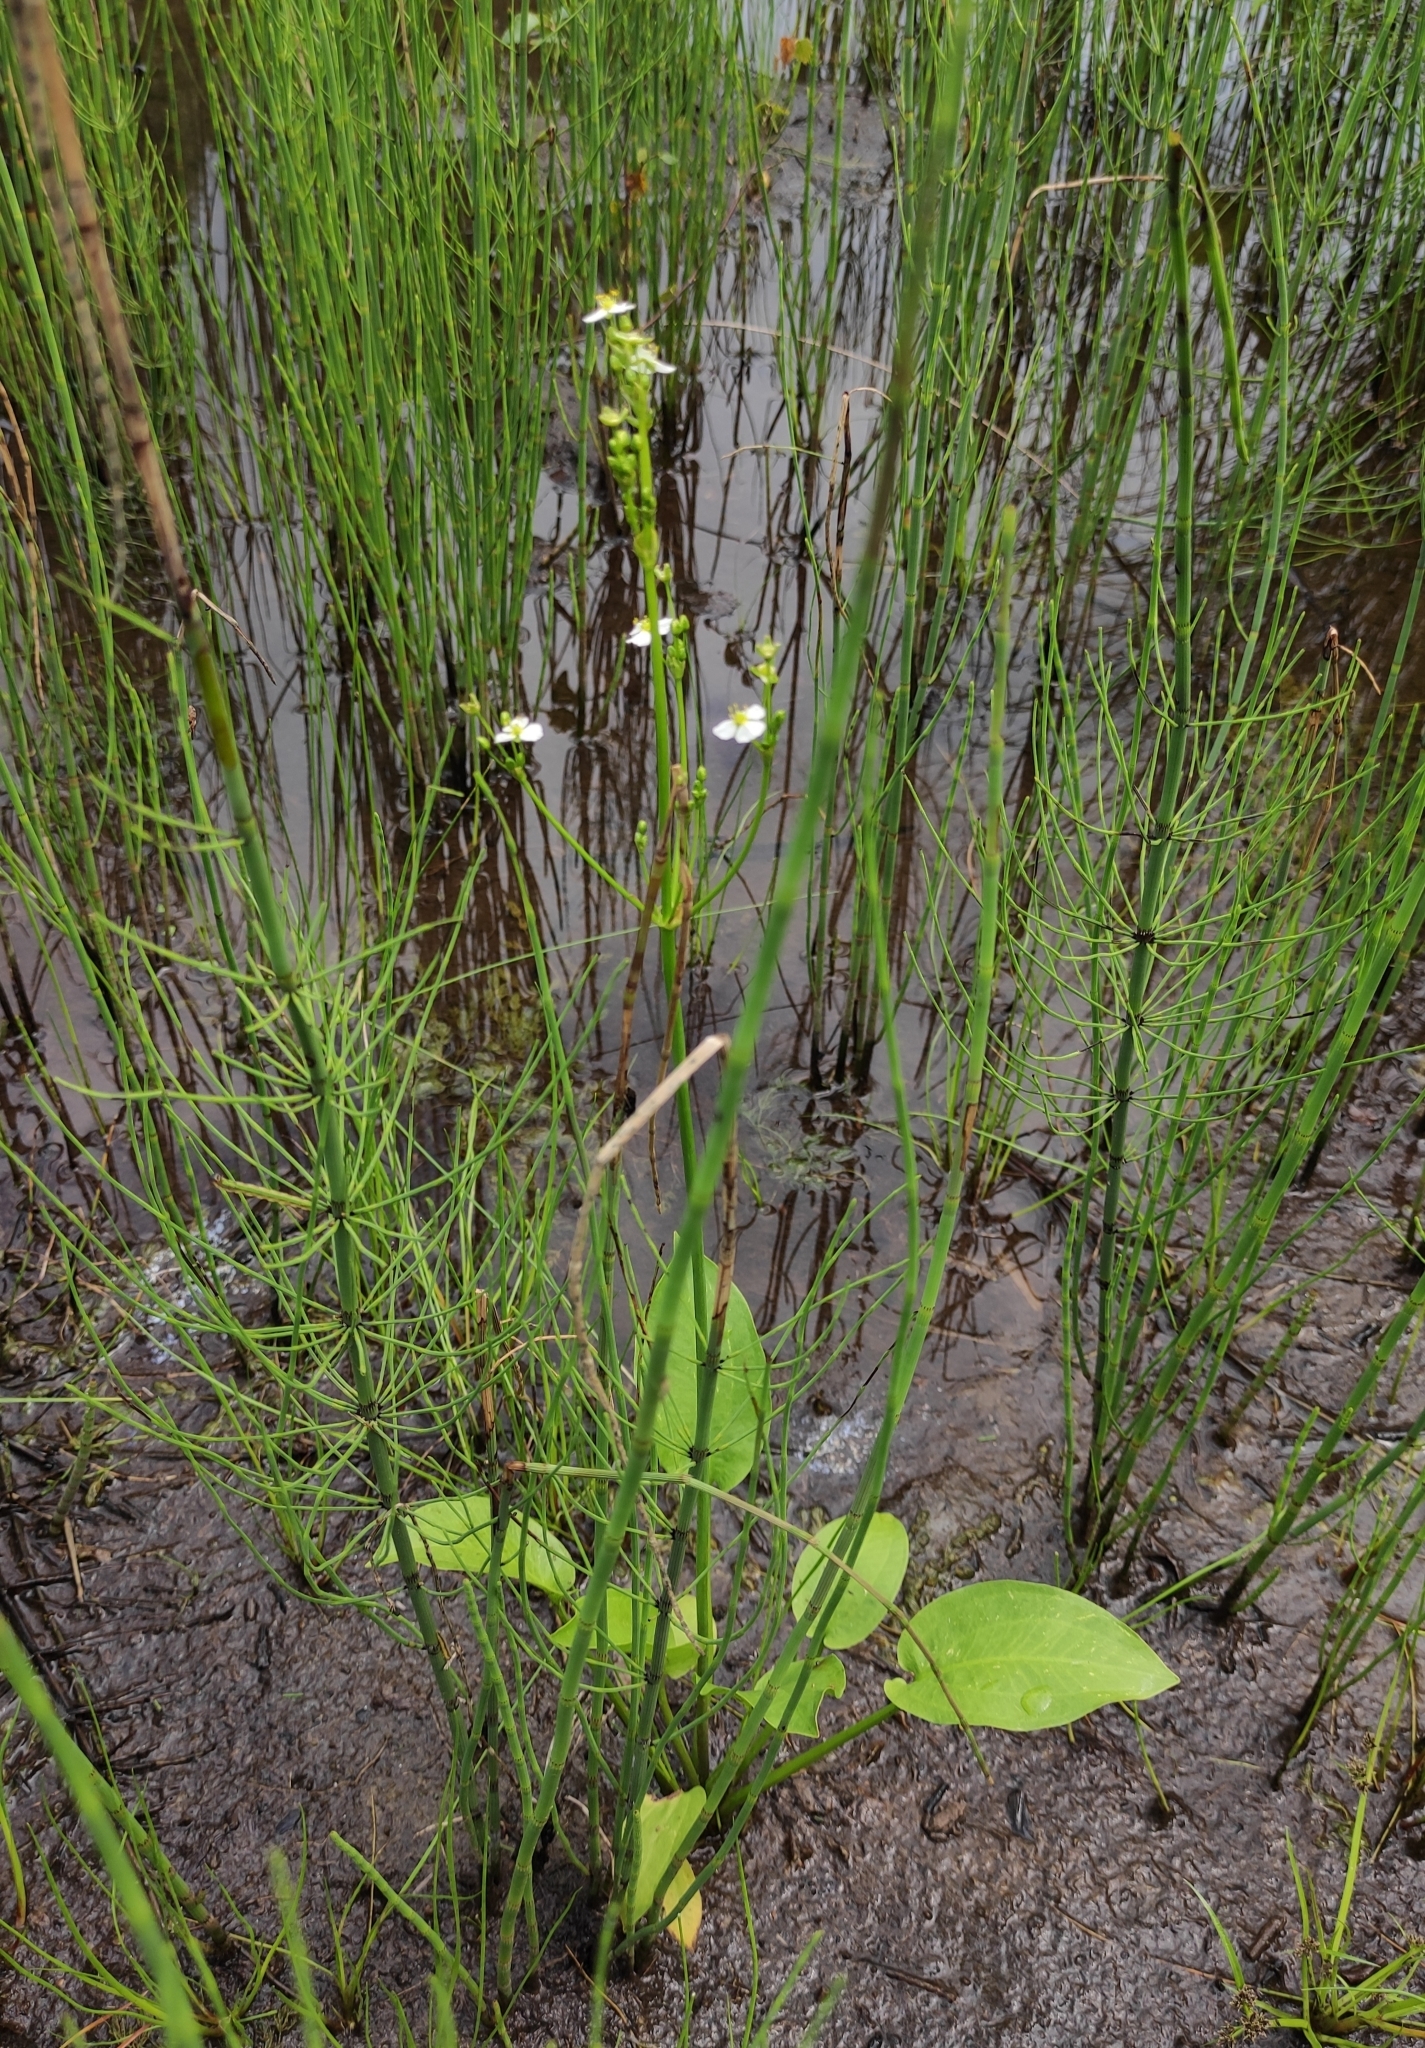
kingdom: Plantae
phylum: Tracheophyta
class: Liliopsida
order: Alismatales
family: Alismataceae
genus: Alisma
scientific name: Alisma plantago-aquatica
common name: Water-plantain
